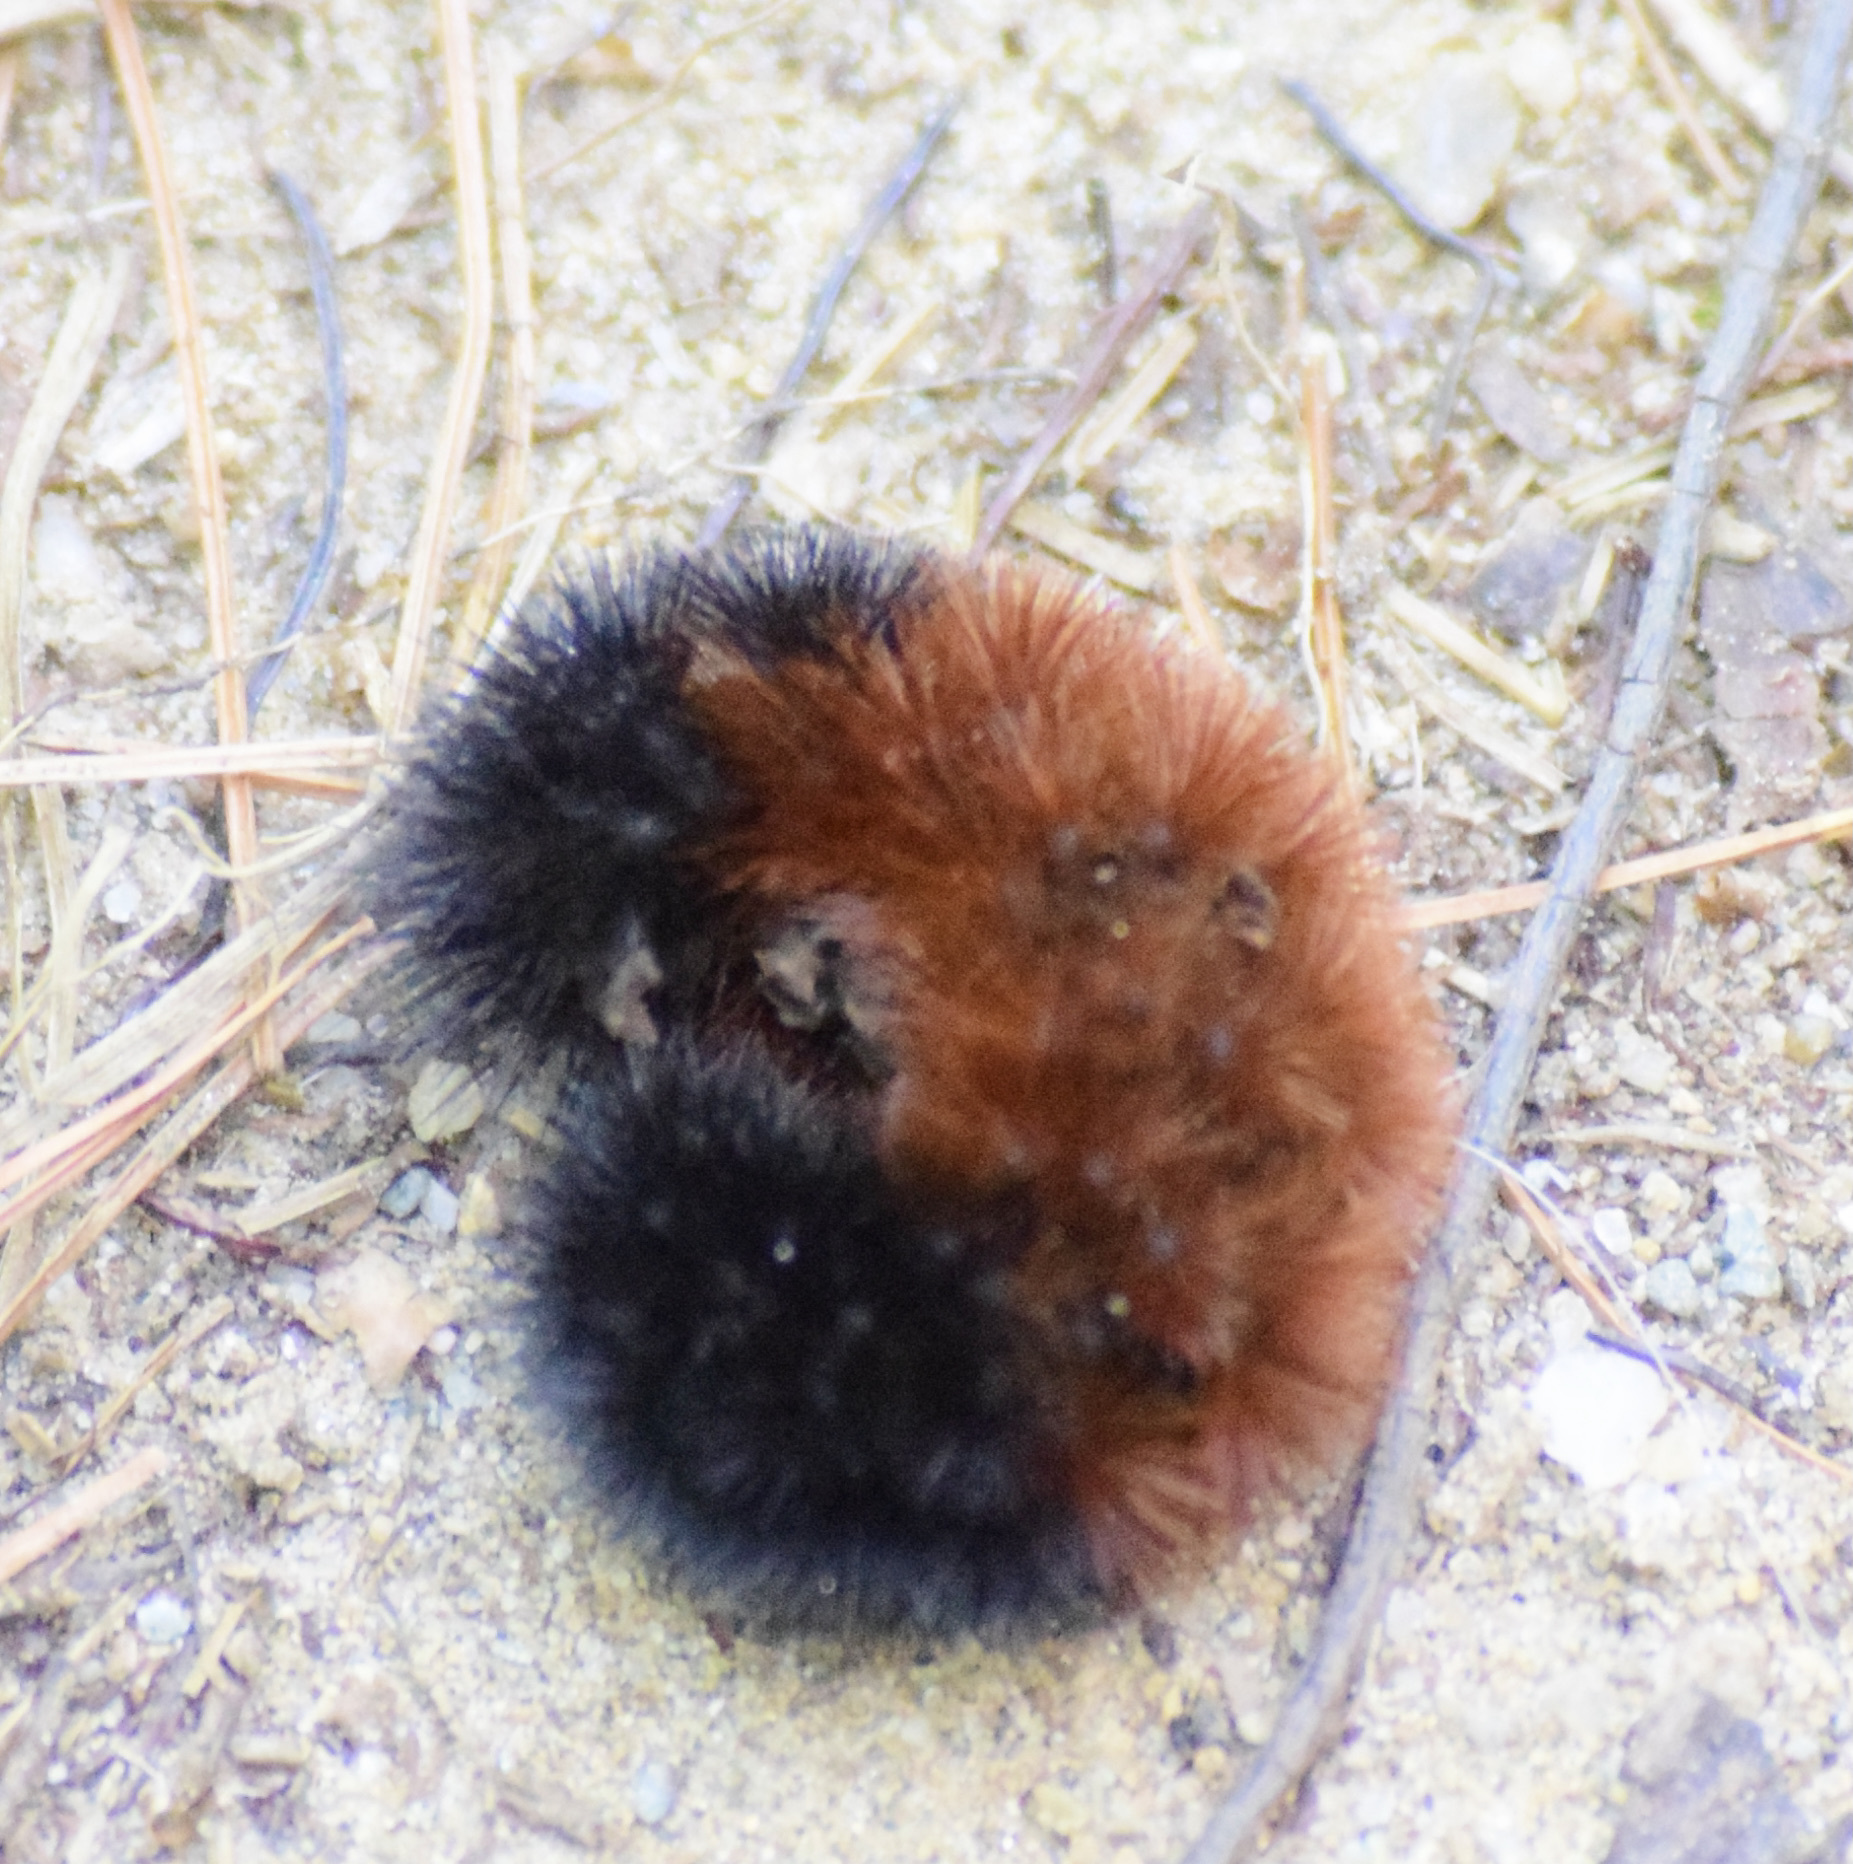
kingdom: Animalia
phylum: Arthropoda
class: Insecta
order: Lepidoptera
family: Erebidae
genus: Pyrrharctia
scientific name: Pyrrharctia isabella
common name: Isabella tiger moth
